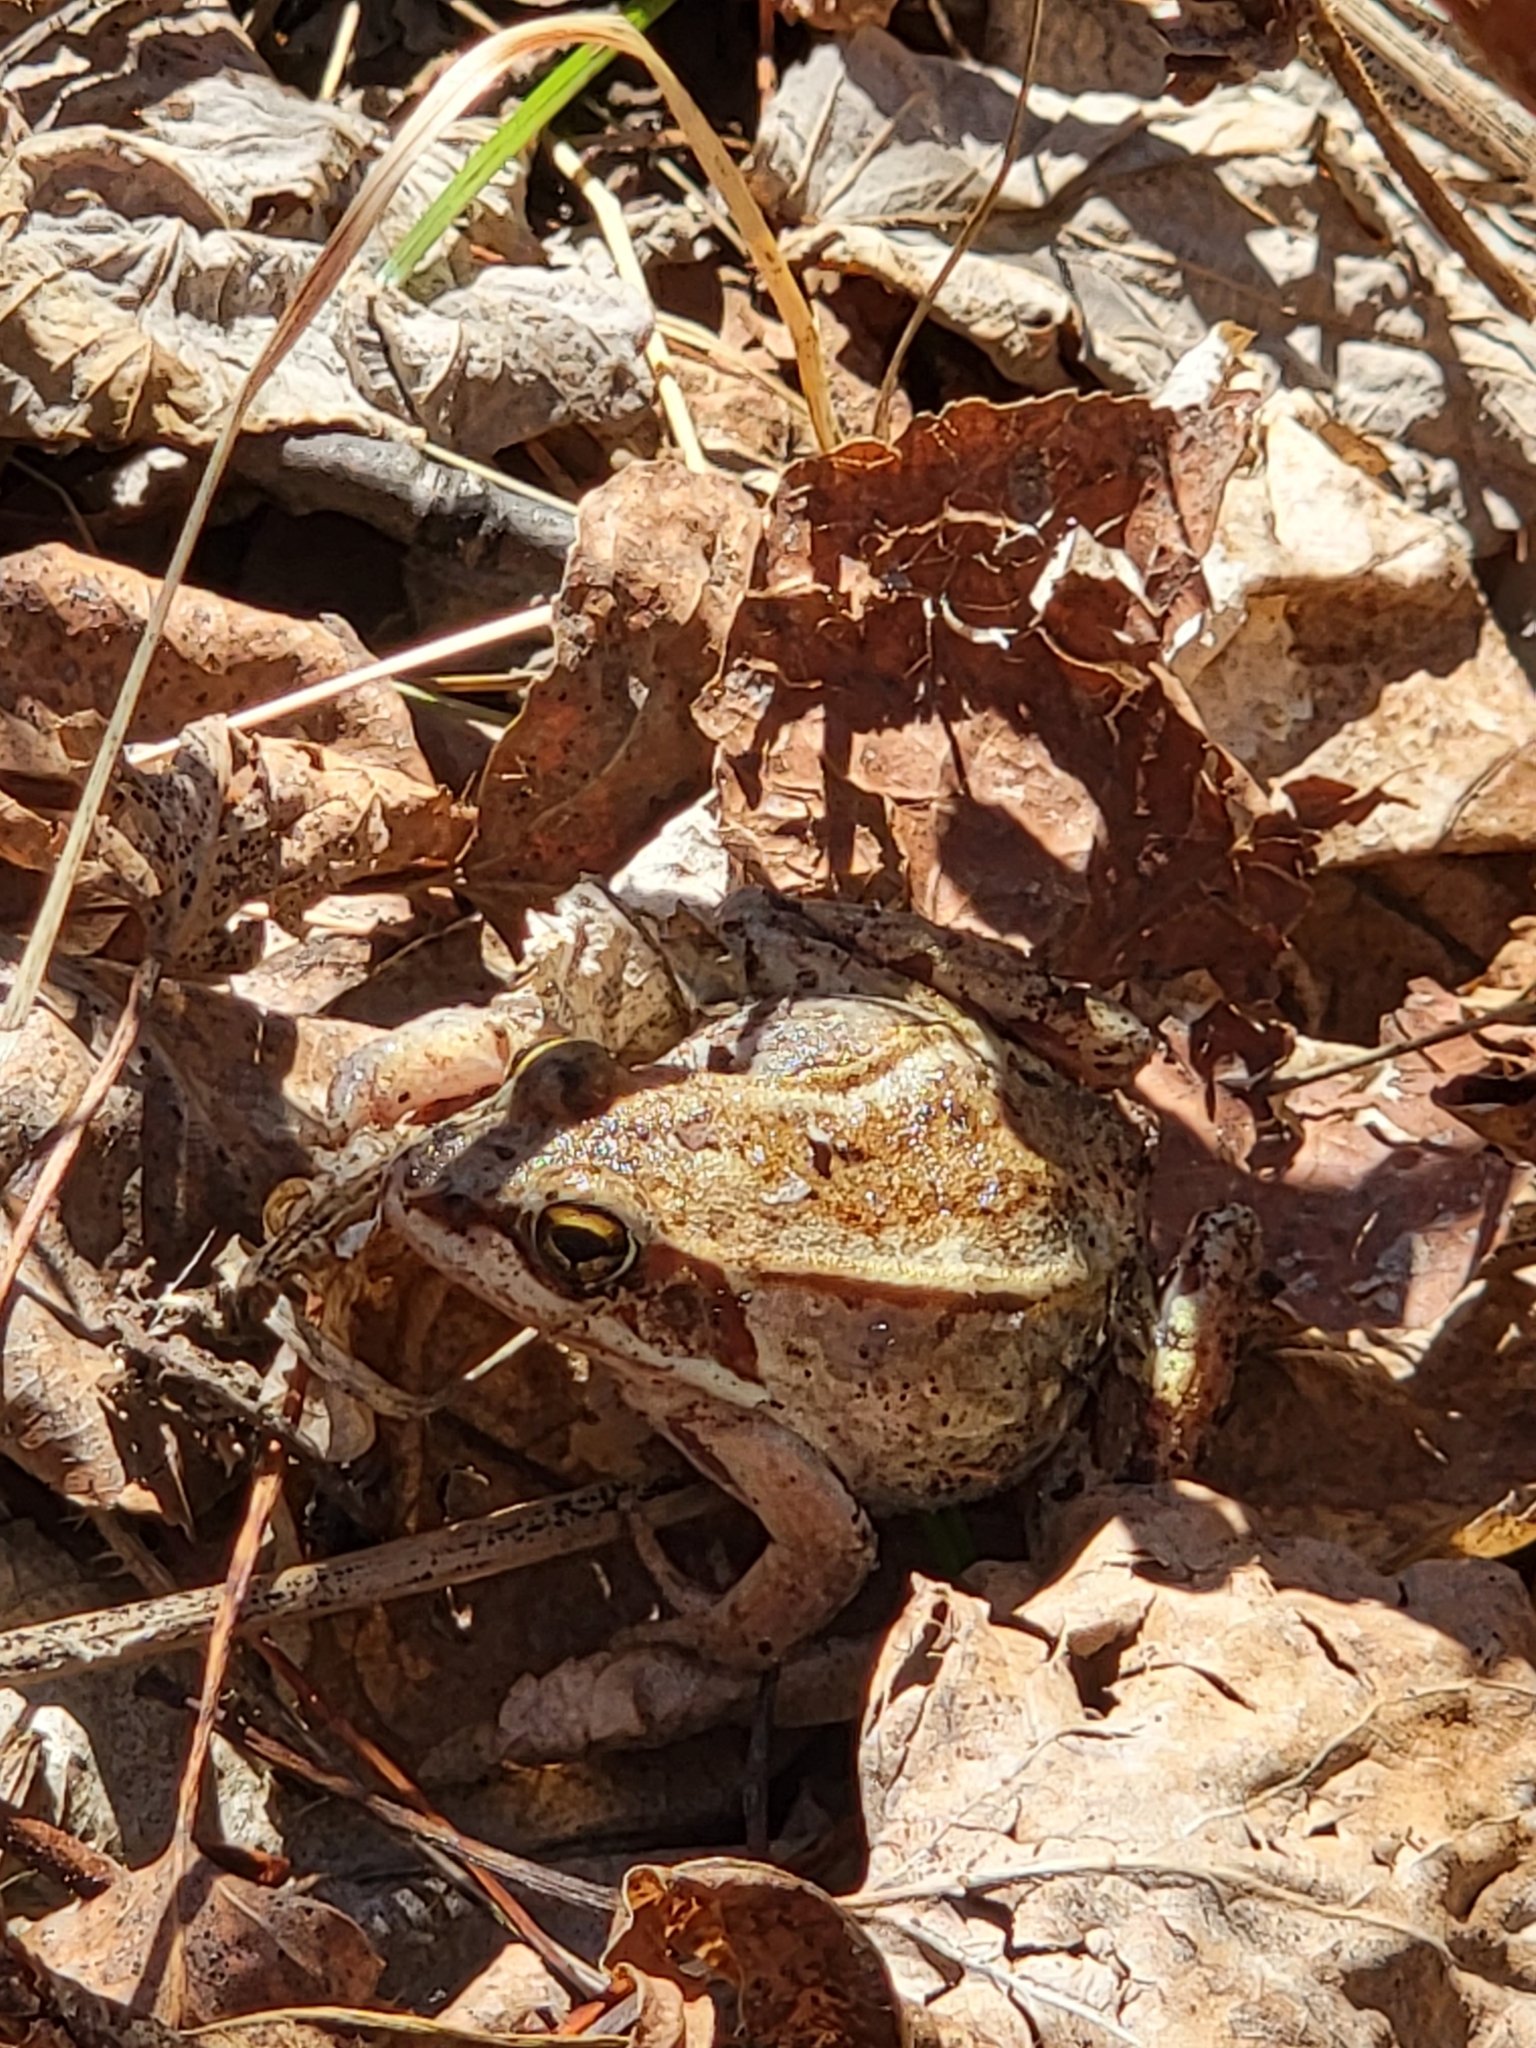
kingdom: Animalia
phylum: Chordata
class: Amphibia
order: Anura
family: Ranidae
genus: Lithobates
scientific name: Lithobates sylvaticus
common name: Wood frog
